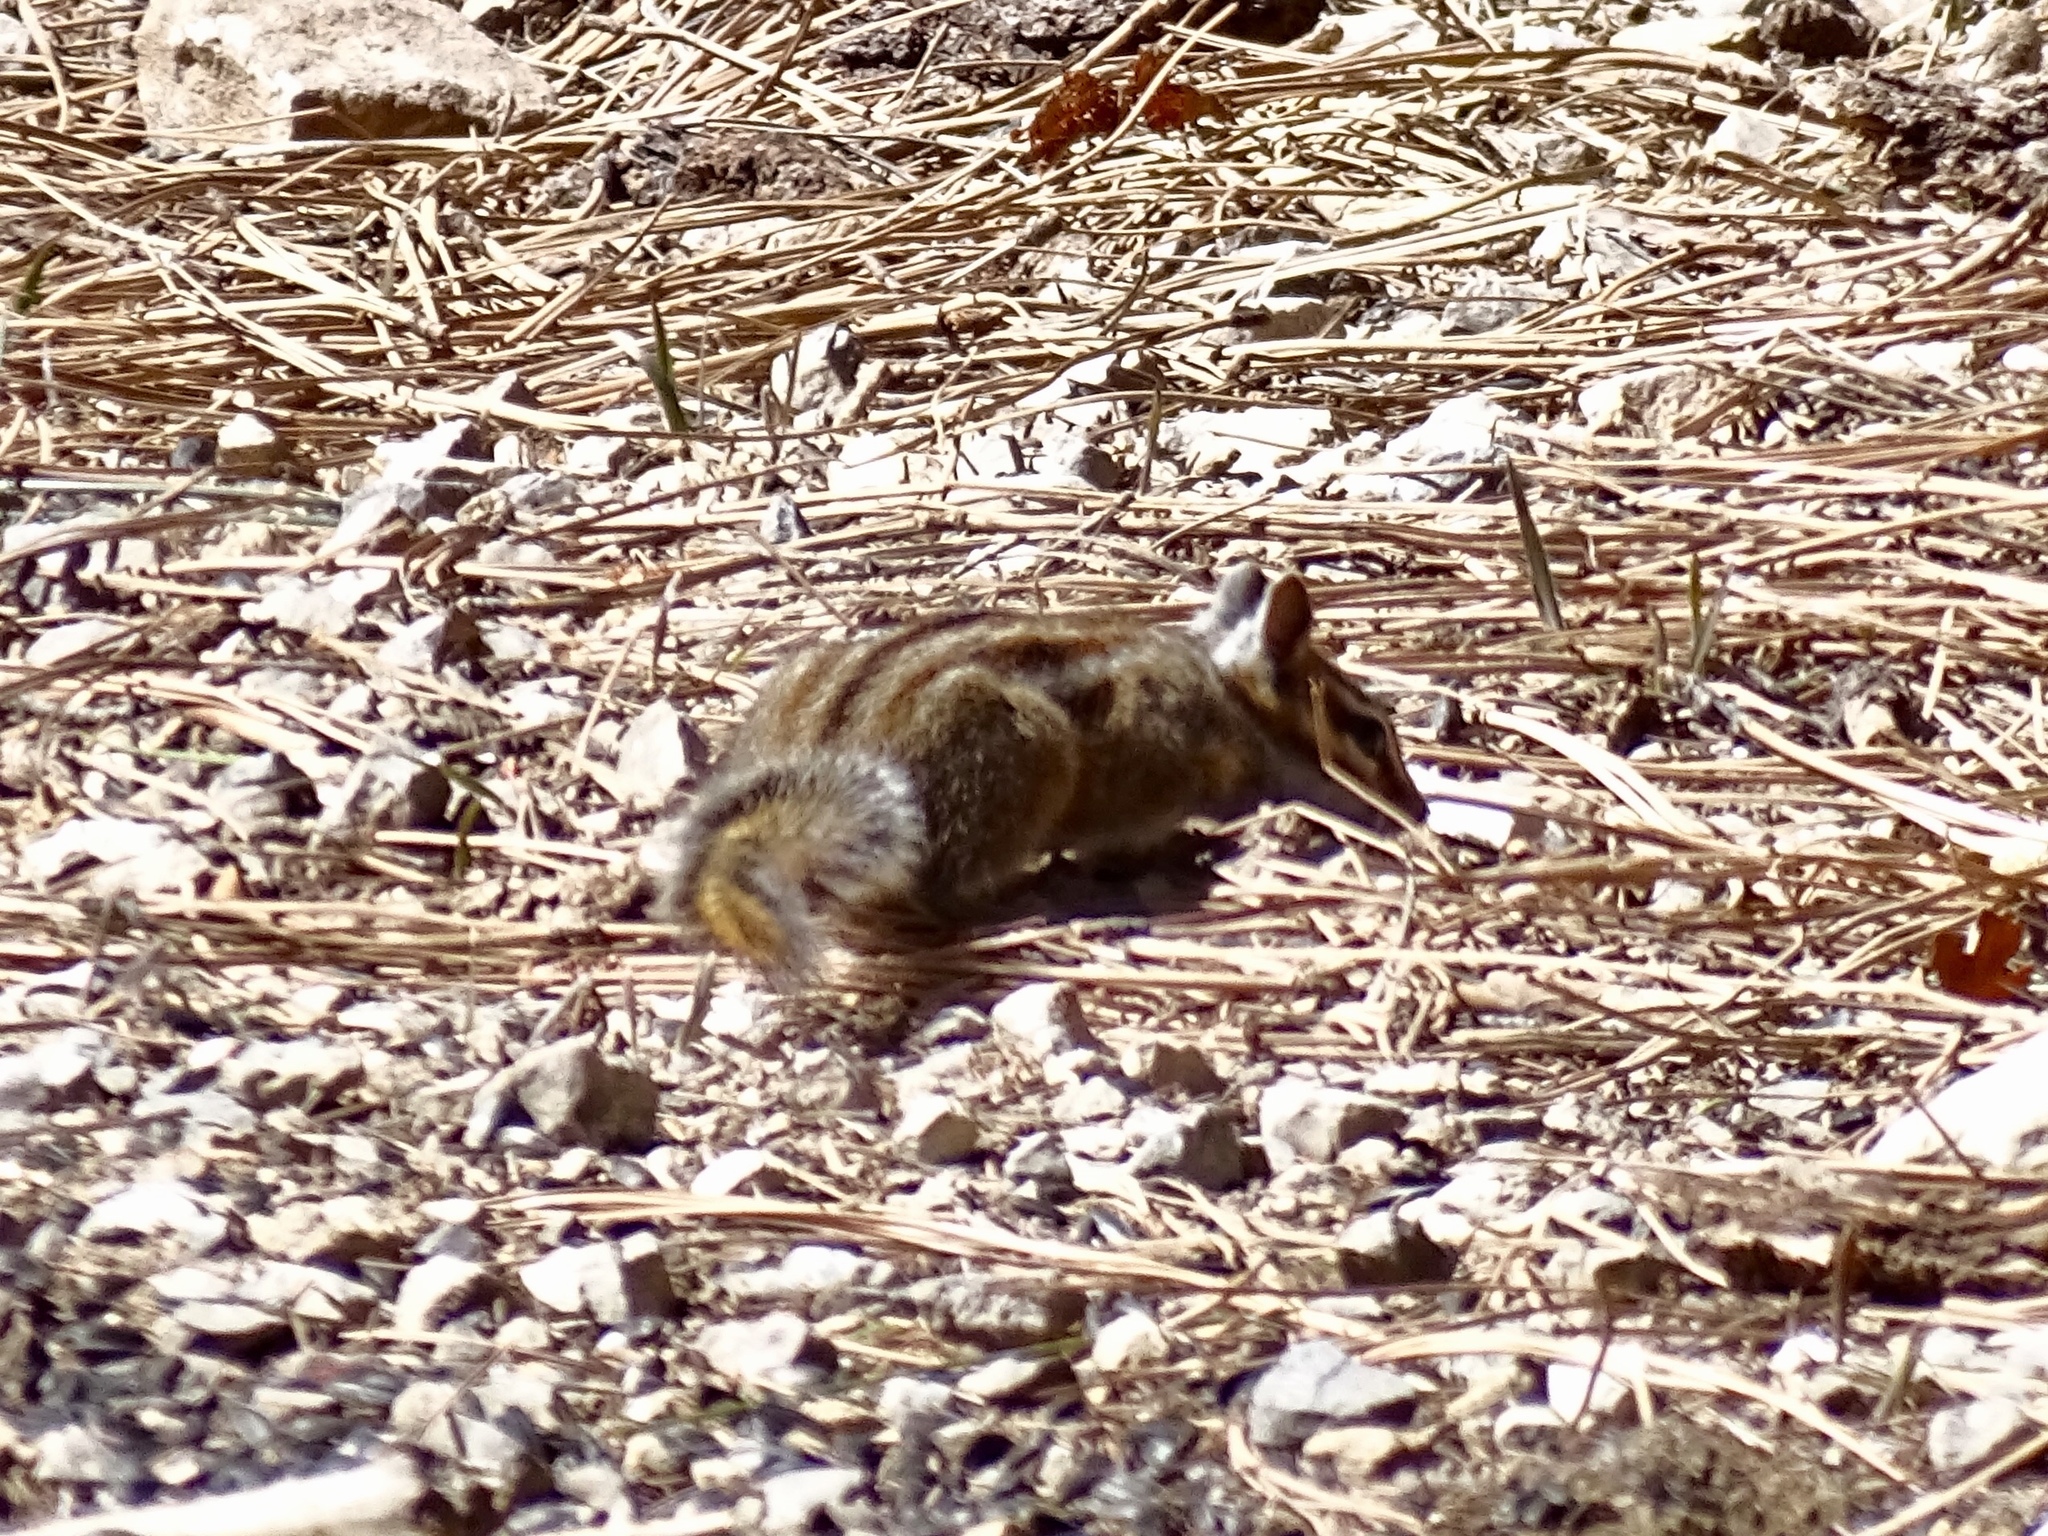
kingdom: Animalia
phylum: Chordata
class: Mammalia
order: Rodentia
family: Sciuridae
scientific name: Sciuridae
